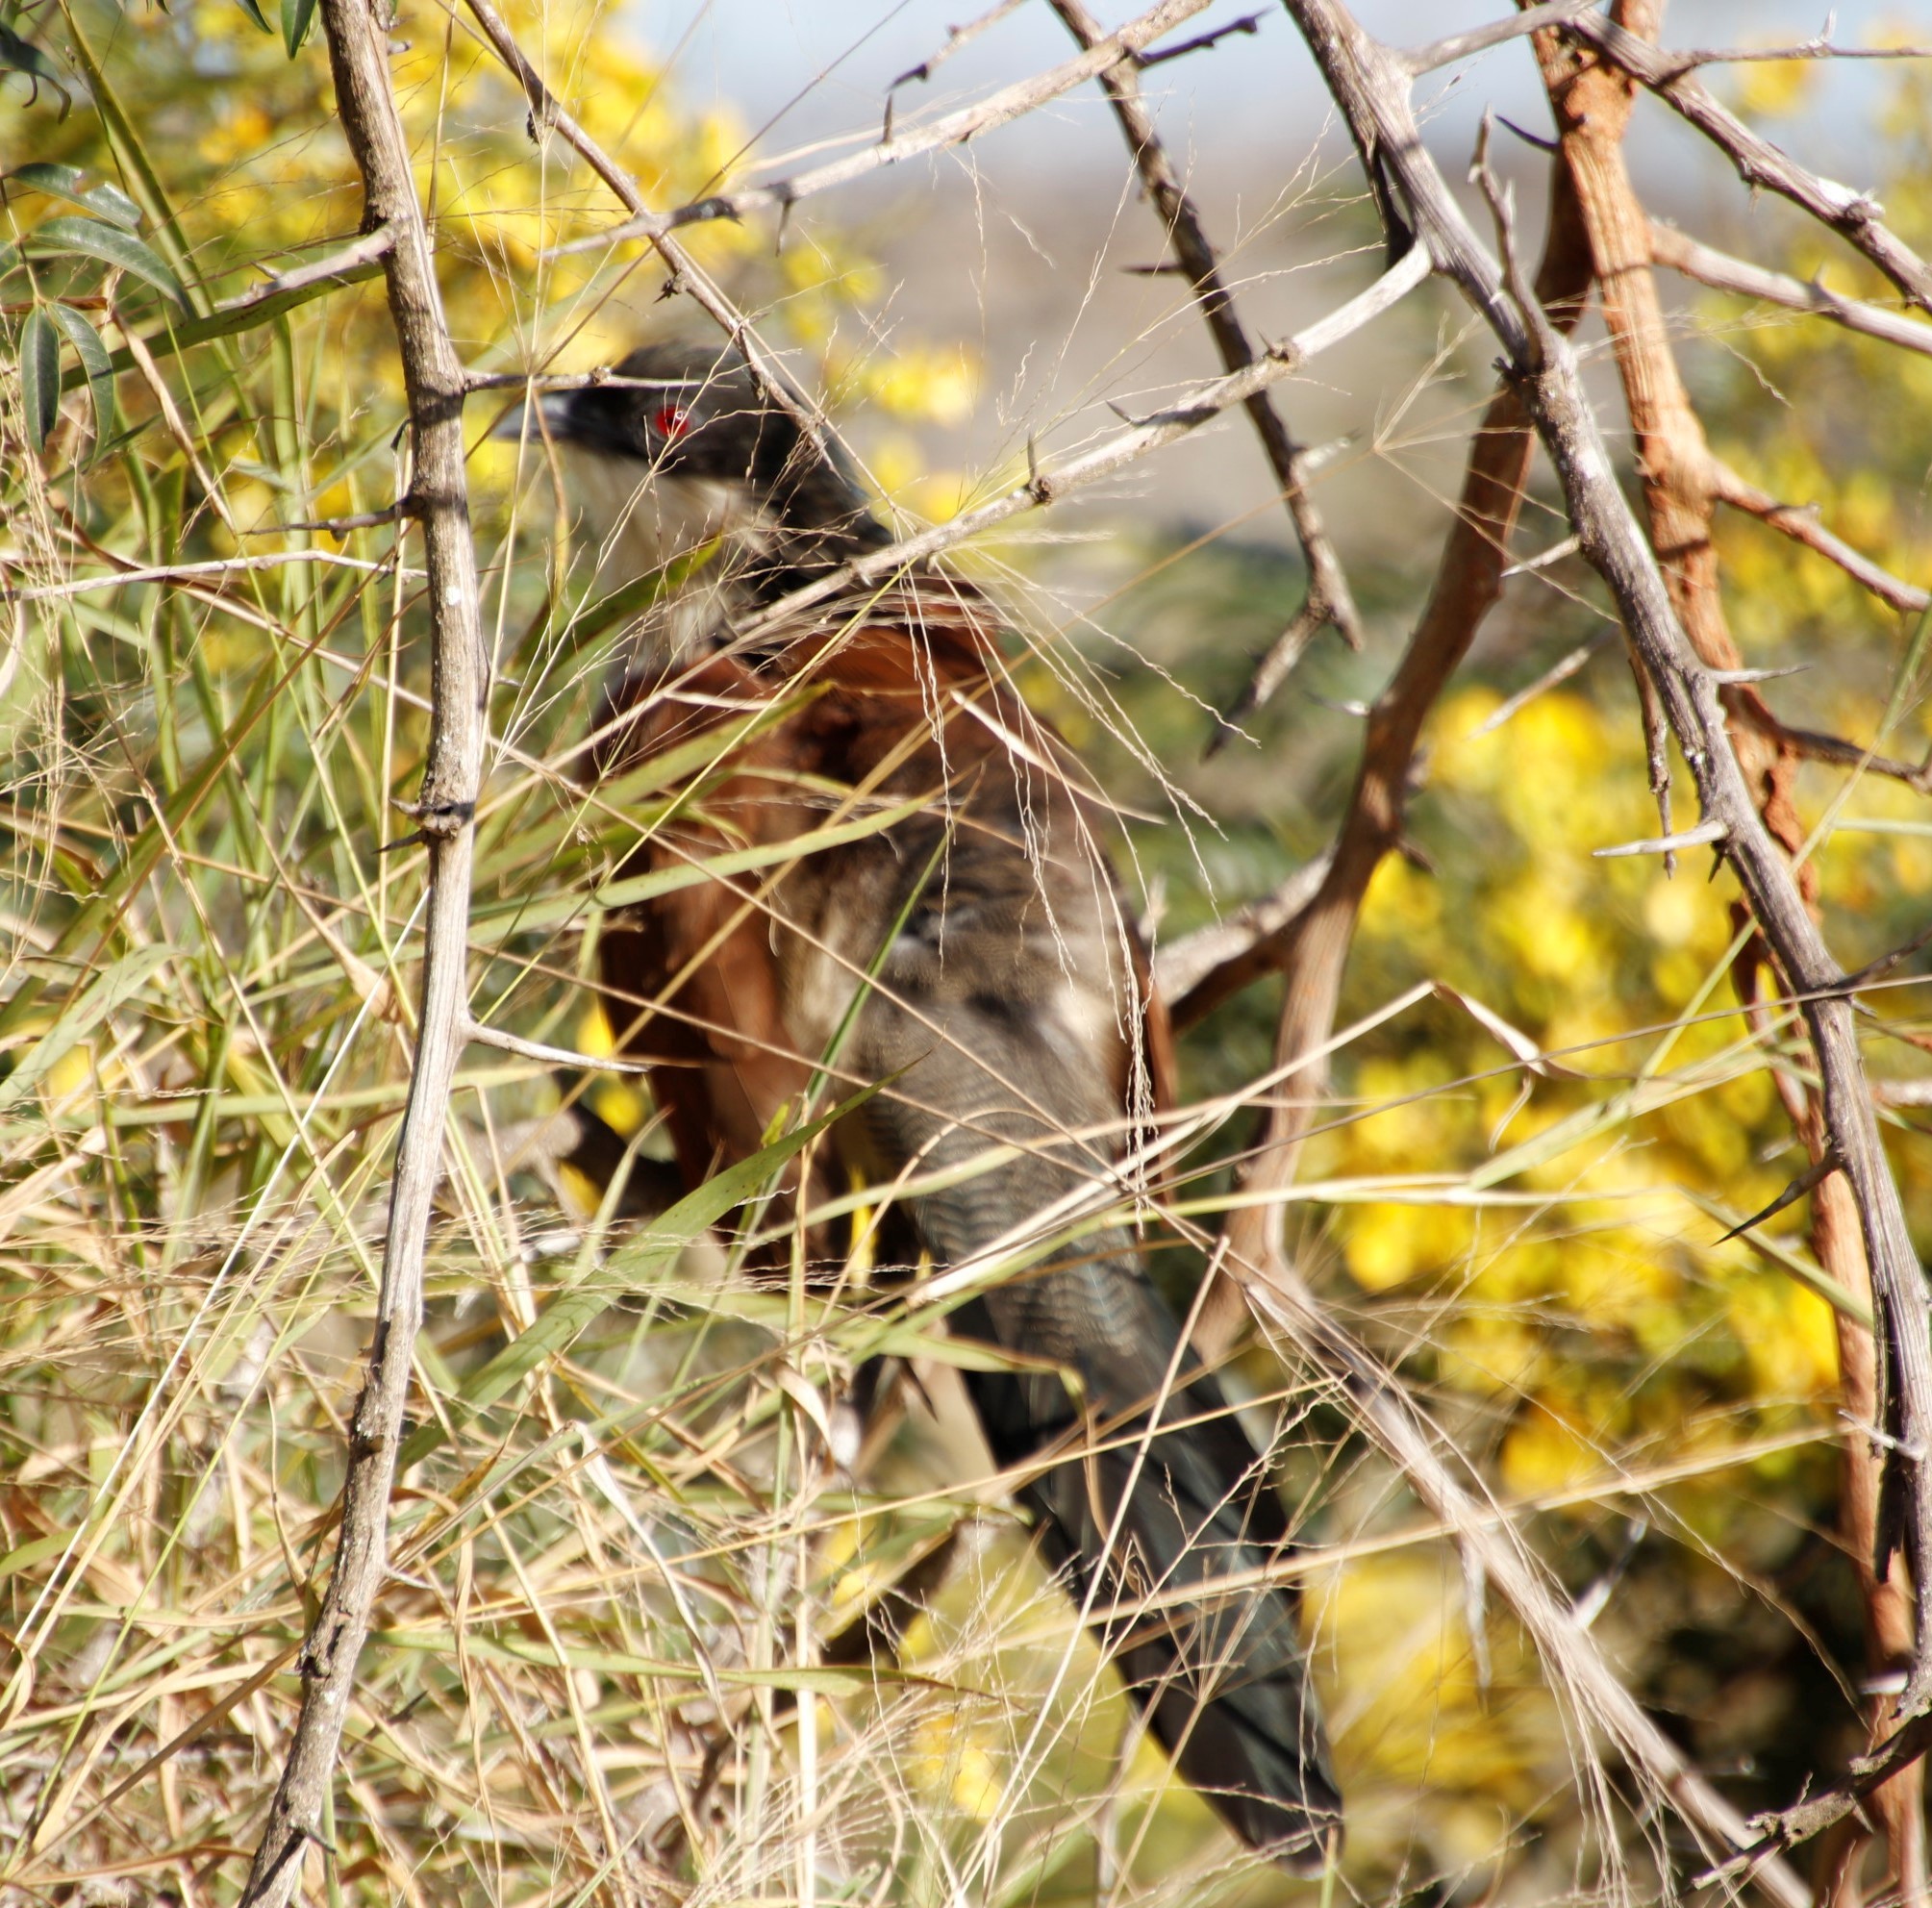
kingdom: Animalia
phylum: Chordata
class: Aves
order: Cuculiformes
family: Cuculidae
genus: Centropus
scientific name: Centropus superciliosus
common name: White-browed coucal
